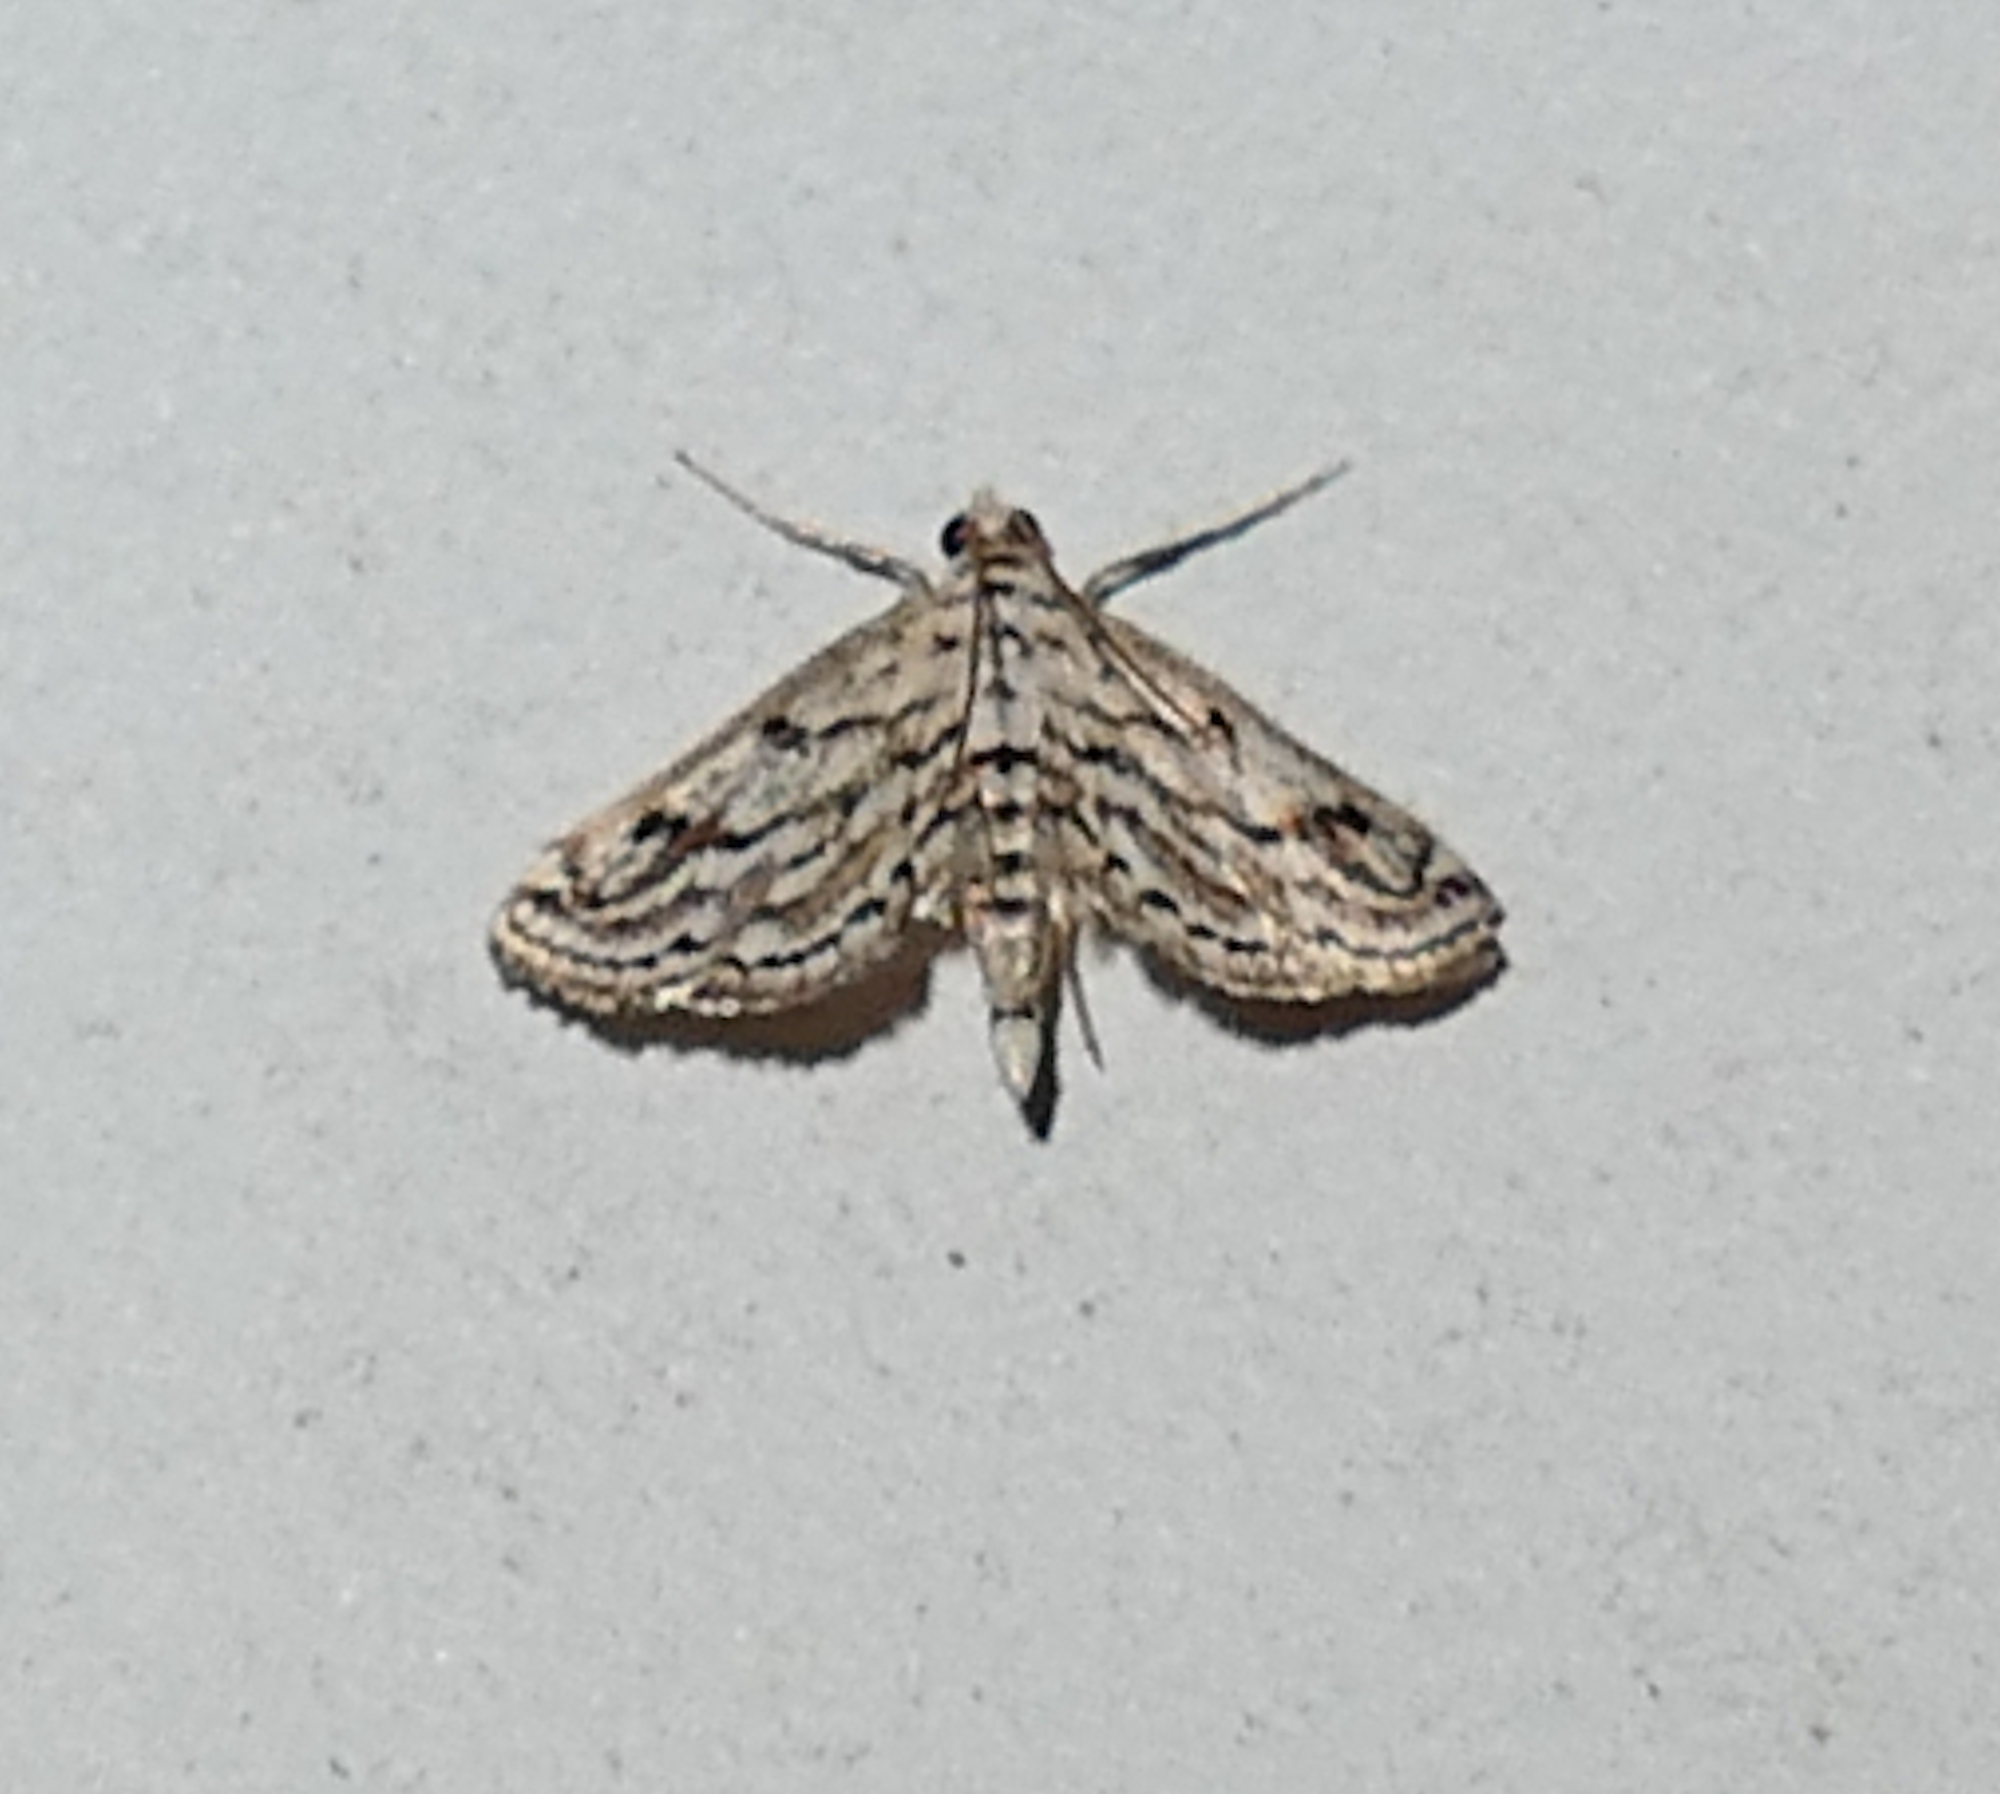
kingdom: Animalia
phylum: Arthropoda
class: Insecta
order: Lepidoptera
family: Crambidae
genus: Parapoynx
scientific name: Parapoynx allionealis
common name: Bladderwort casemaker
